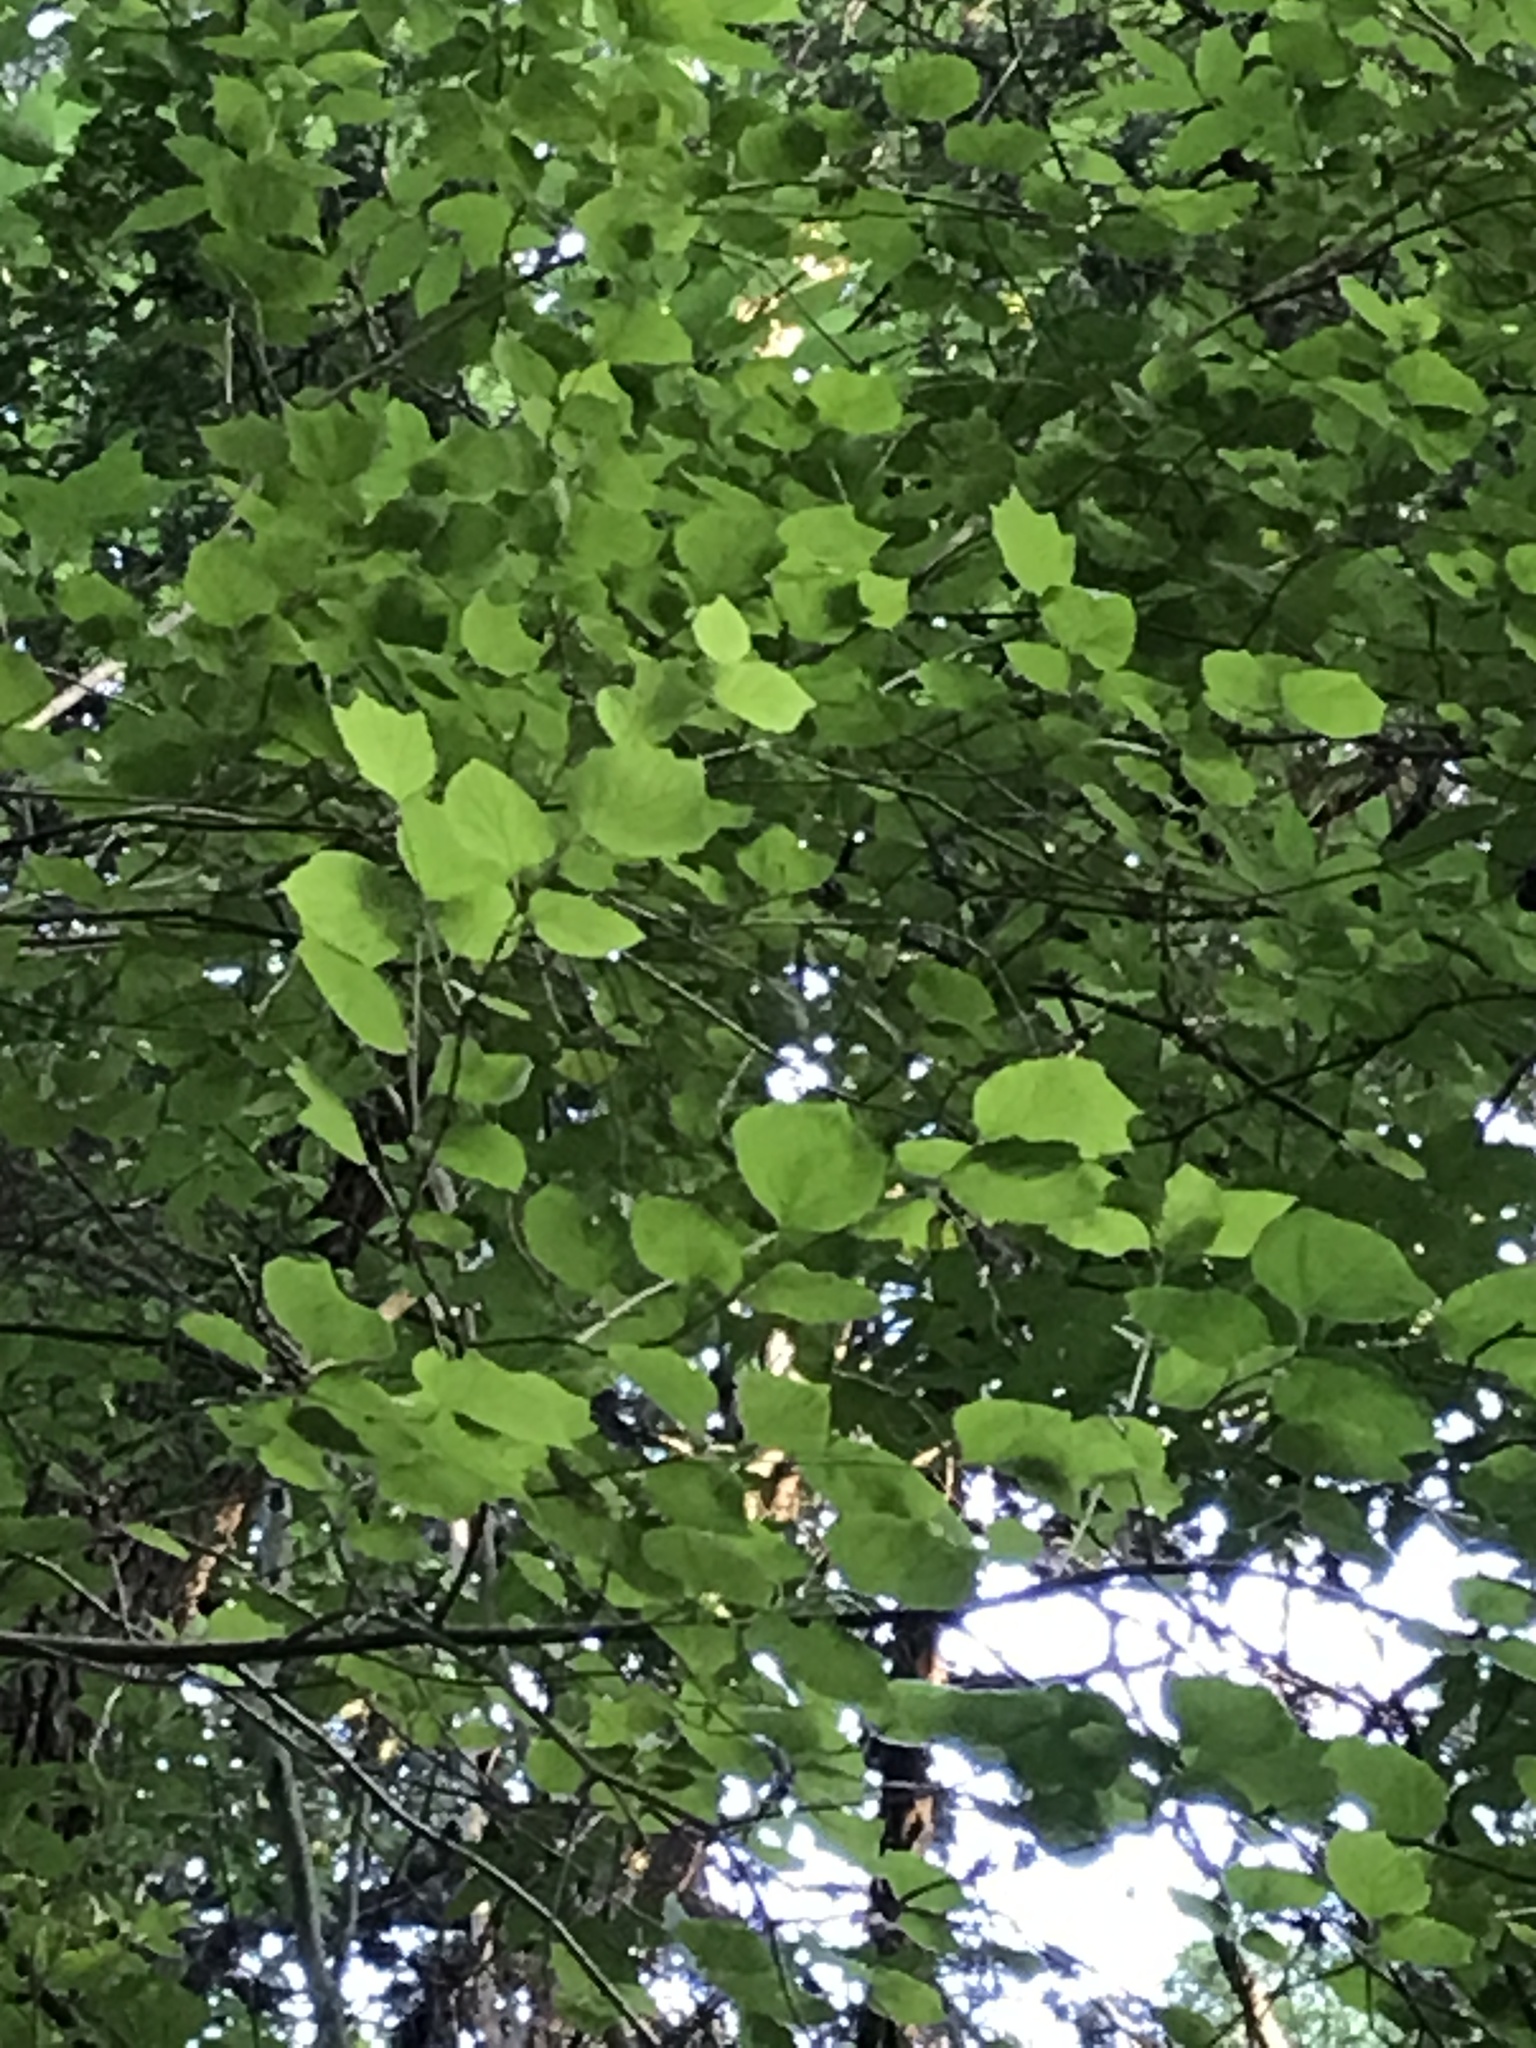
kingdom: Plantae
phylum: Tracheophyta
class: Magnoliopsida
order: Ericales
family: Styracaceae
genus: Styrax
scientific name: Styrax platanifolius
